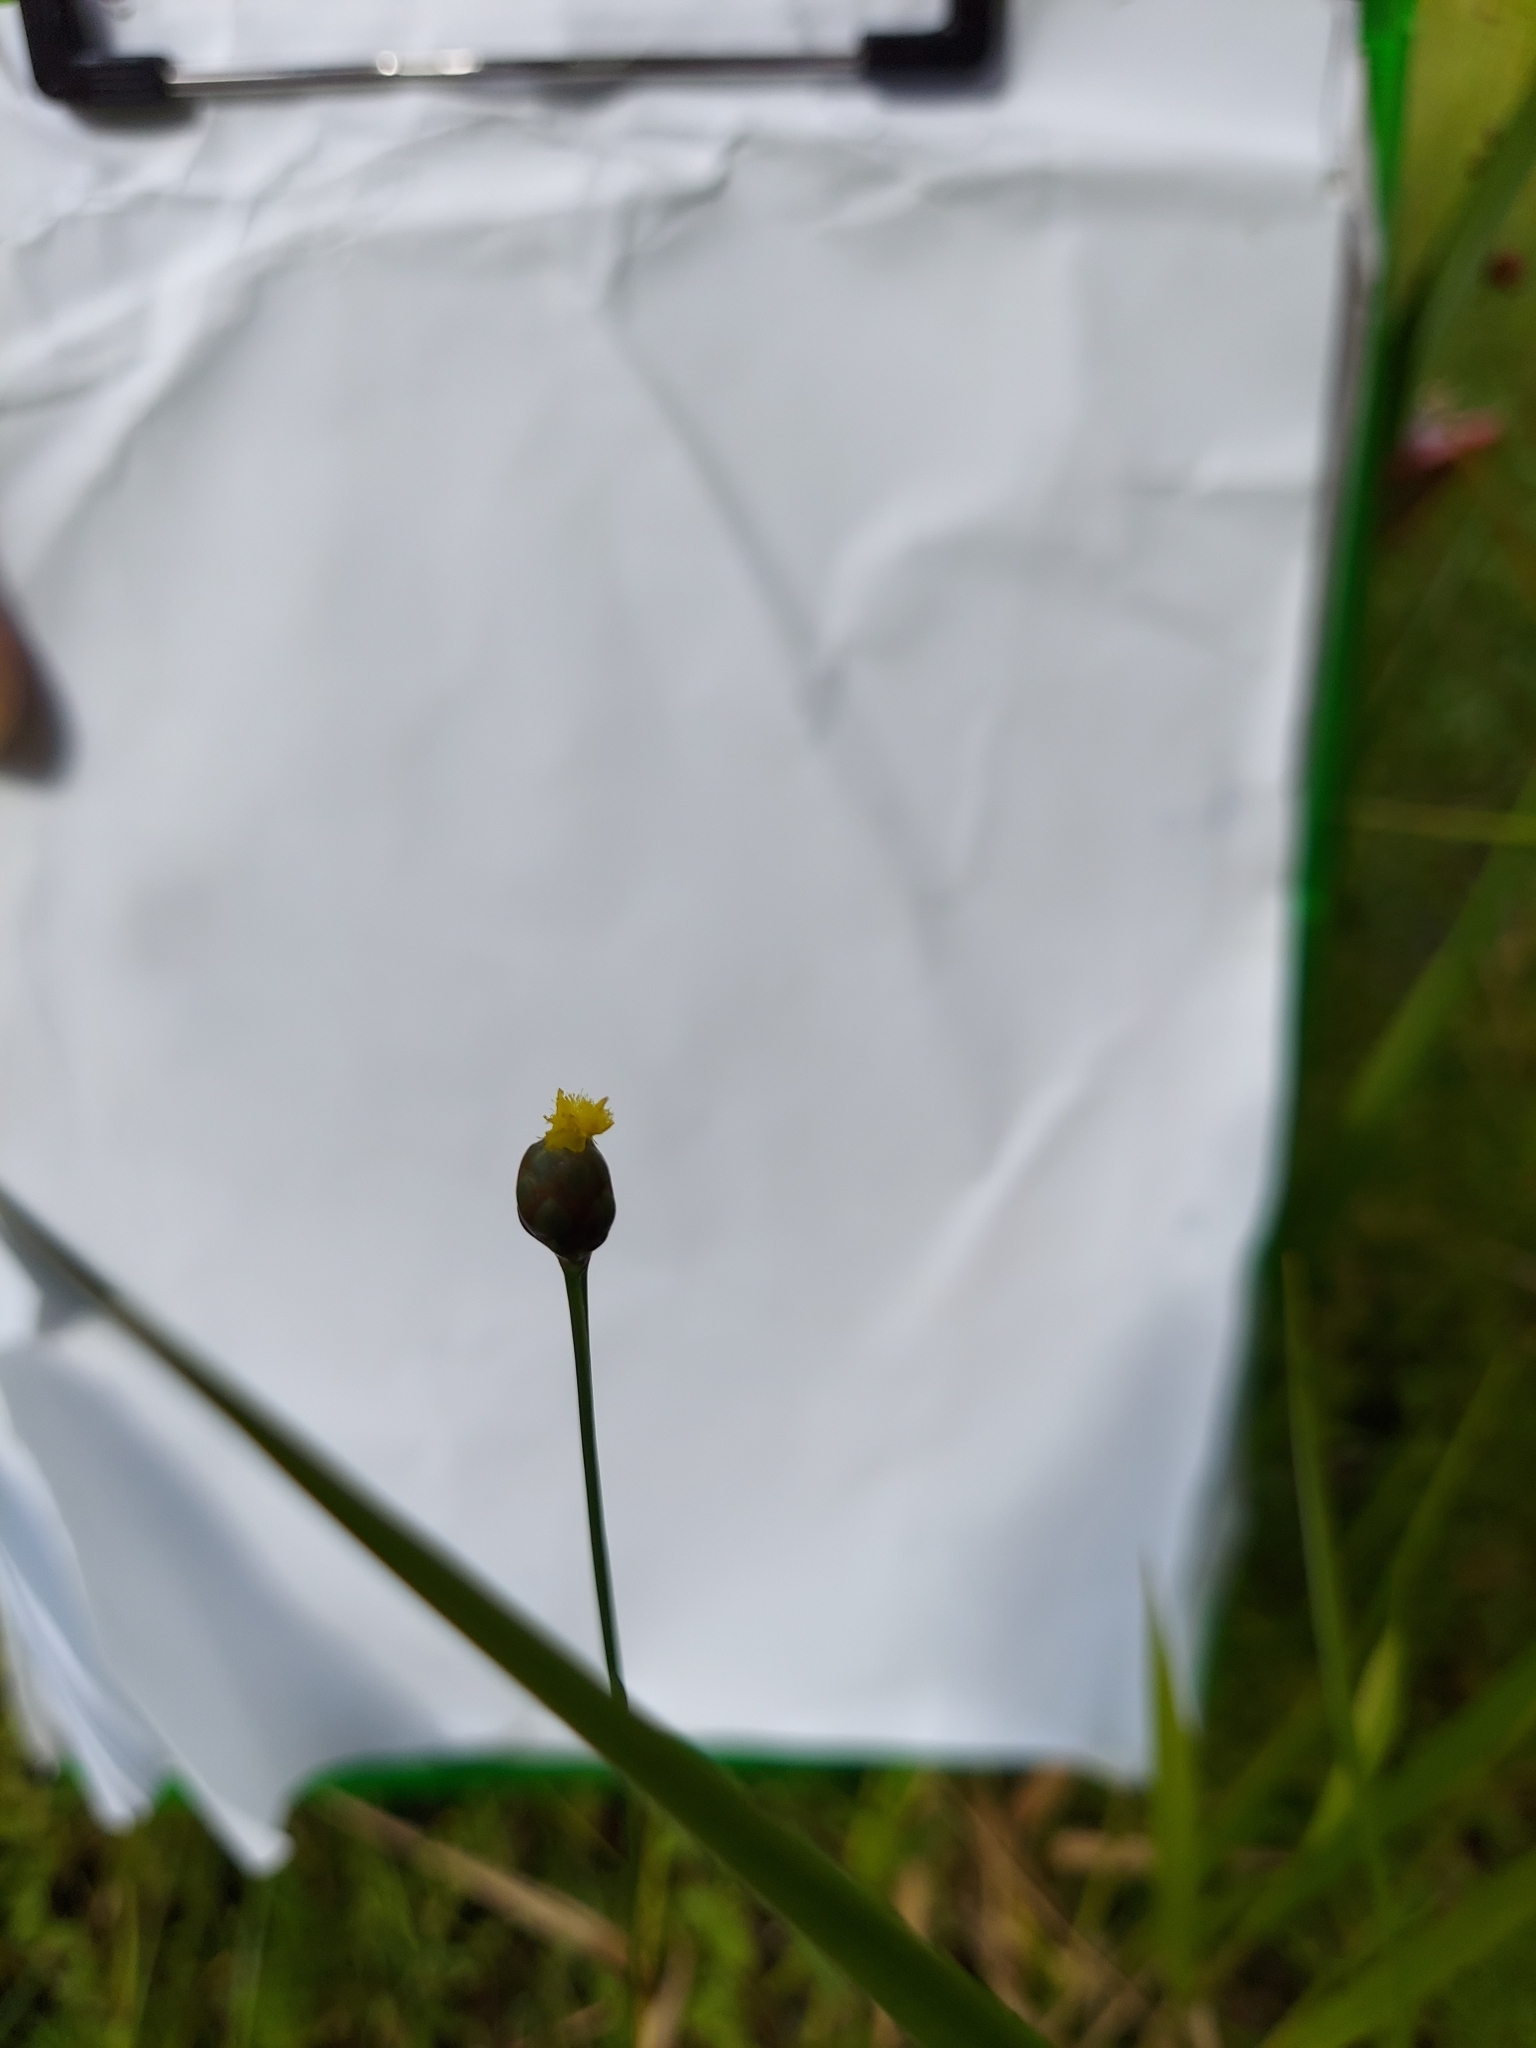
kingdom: Plantae
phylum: Tracheophyta
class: Liliopsida
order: Poales
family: Xyridaceae
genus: Xyris
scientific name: Xyris platylepis
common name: Tall yelloweyed grass
